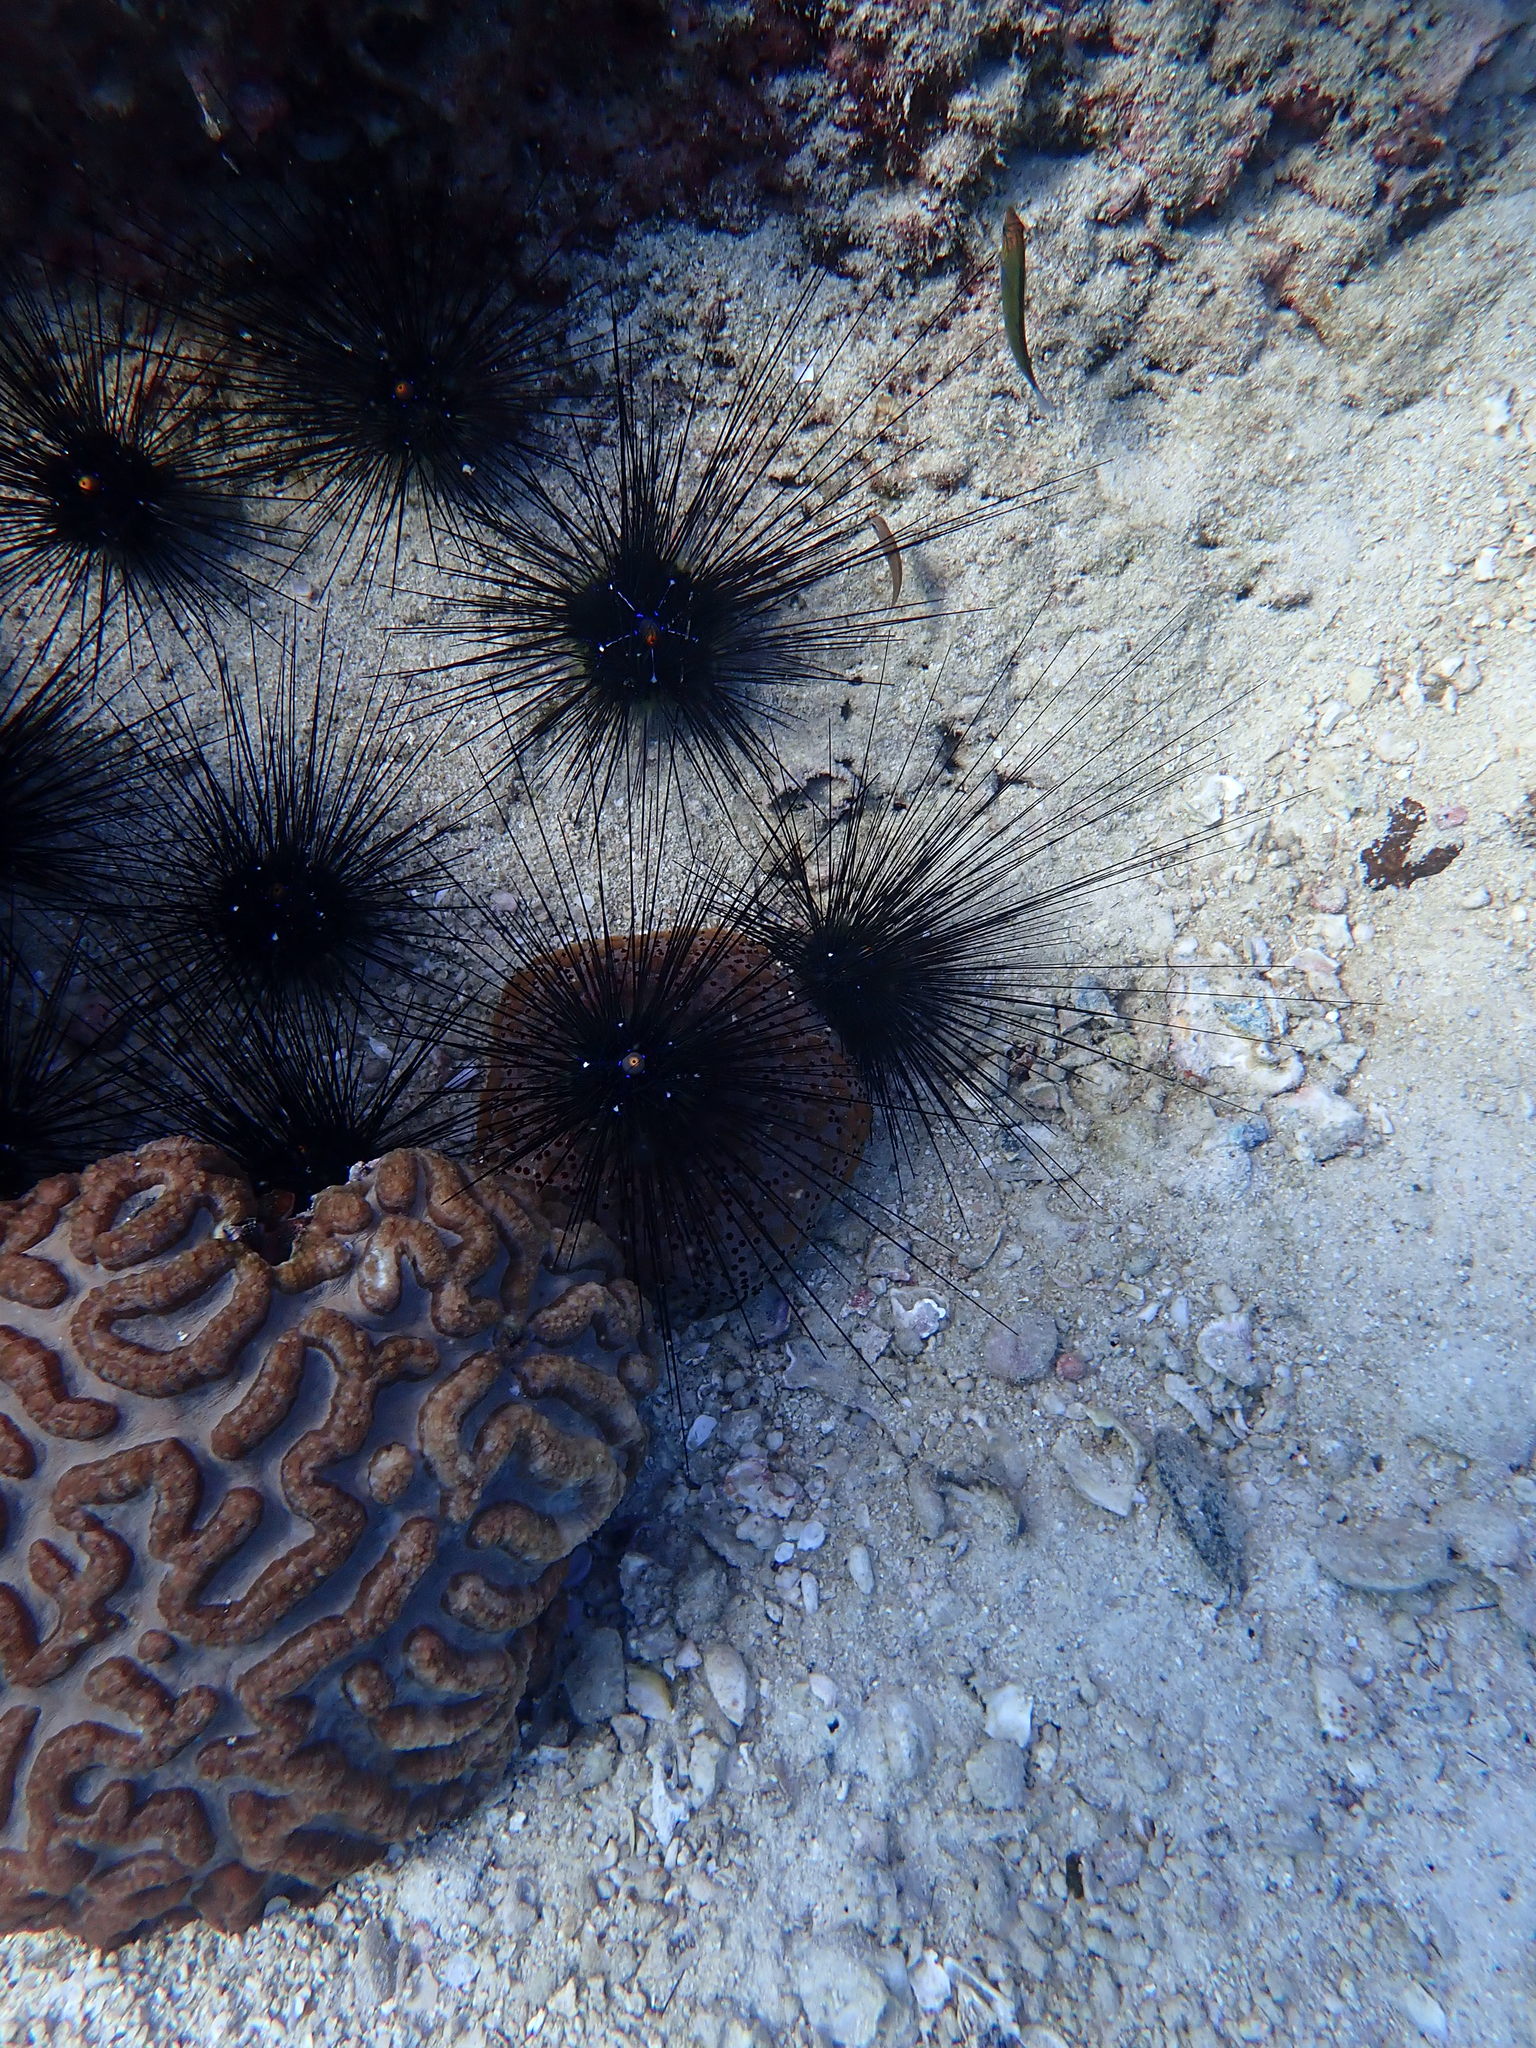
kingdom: Animalia
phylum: Echinodermata
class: Echinoidea
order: Diadematoida
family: Diadematidae
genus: Diadema
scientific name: Diadema setosum
